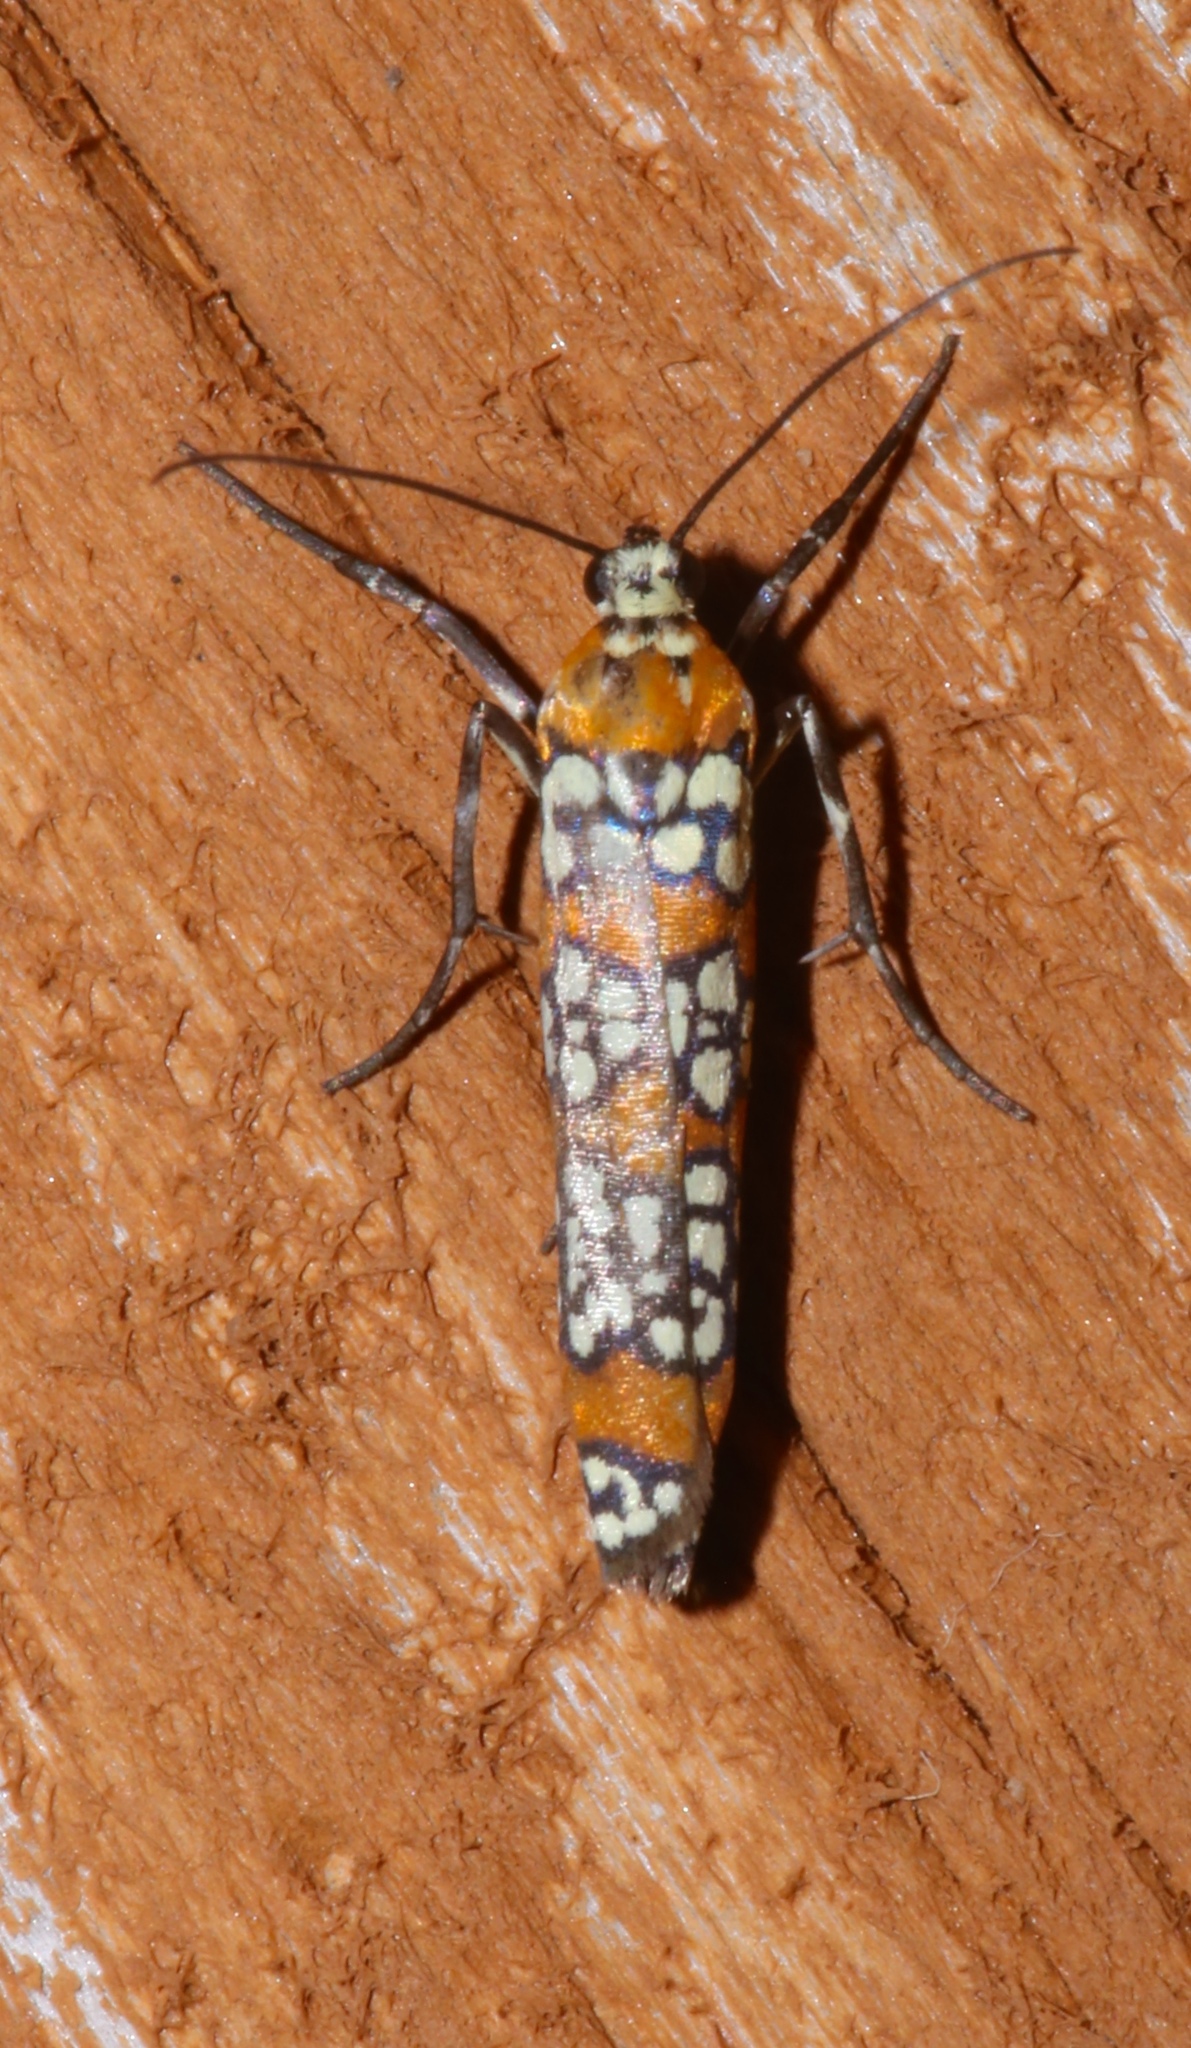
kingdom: Animalia
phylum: Arthropoda
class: Insecta
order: Lepidoptera
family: Attevidae
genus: Atteva
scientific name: Atteva punctella
